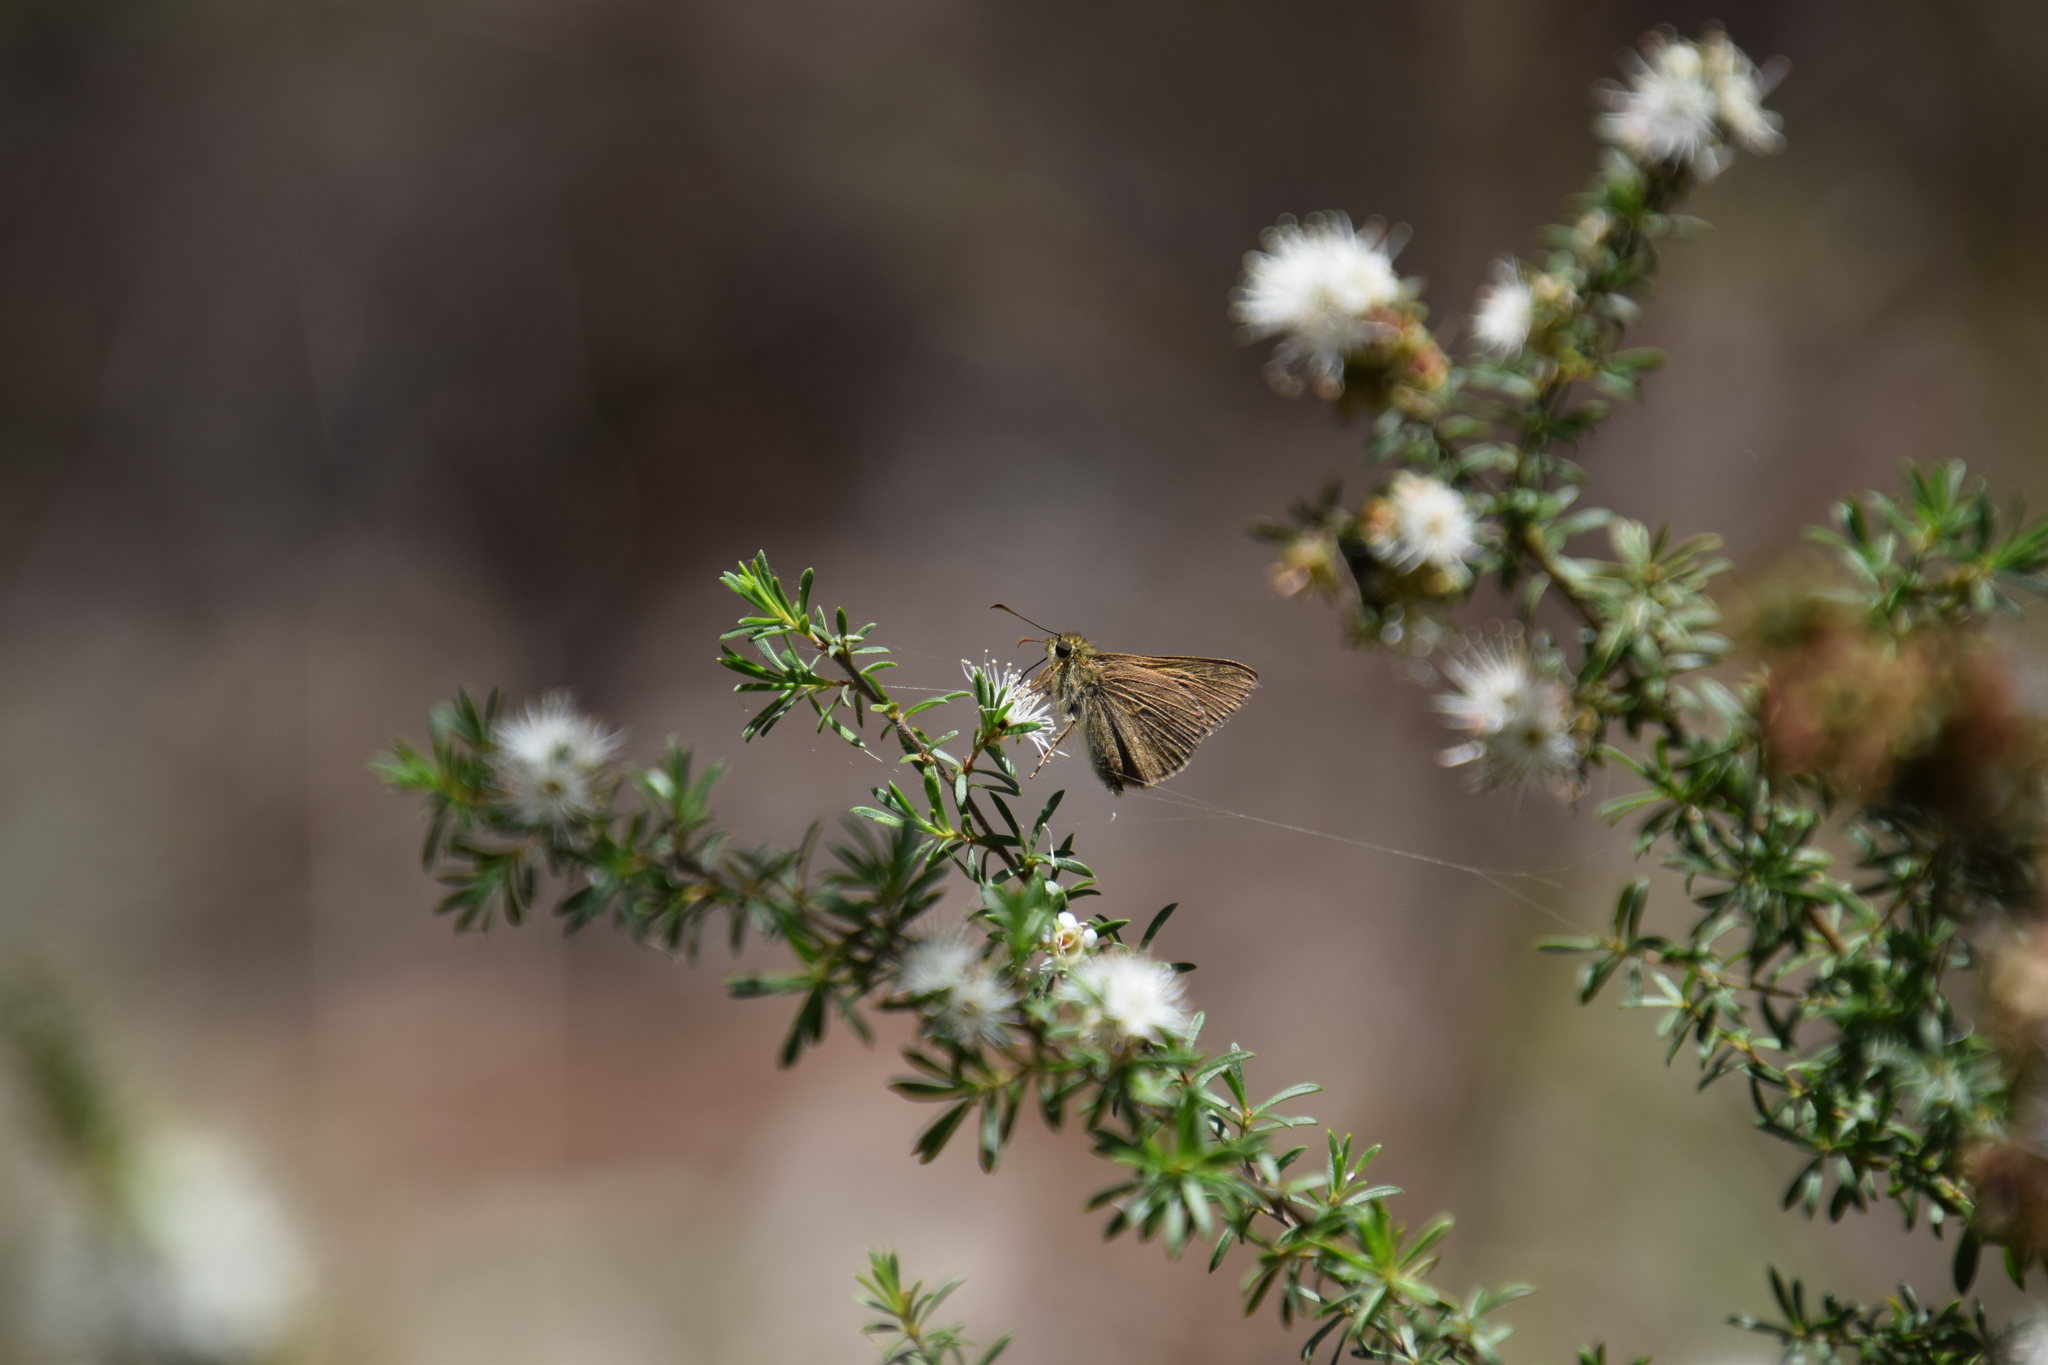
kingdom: Animalia
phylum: Arthropoda
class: Insecta
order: Lepidoptera
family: Hesperiidae
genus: Toxidia
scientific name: Toxidia
